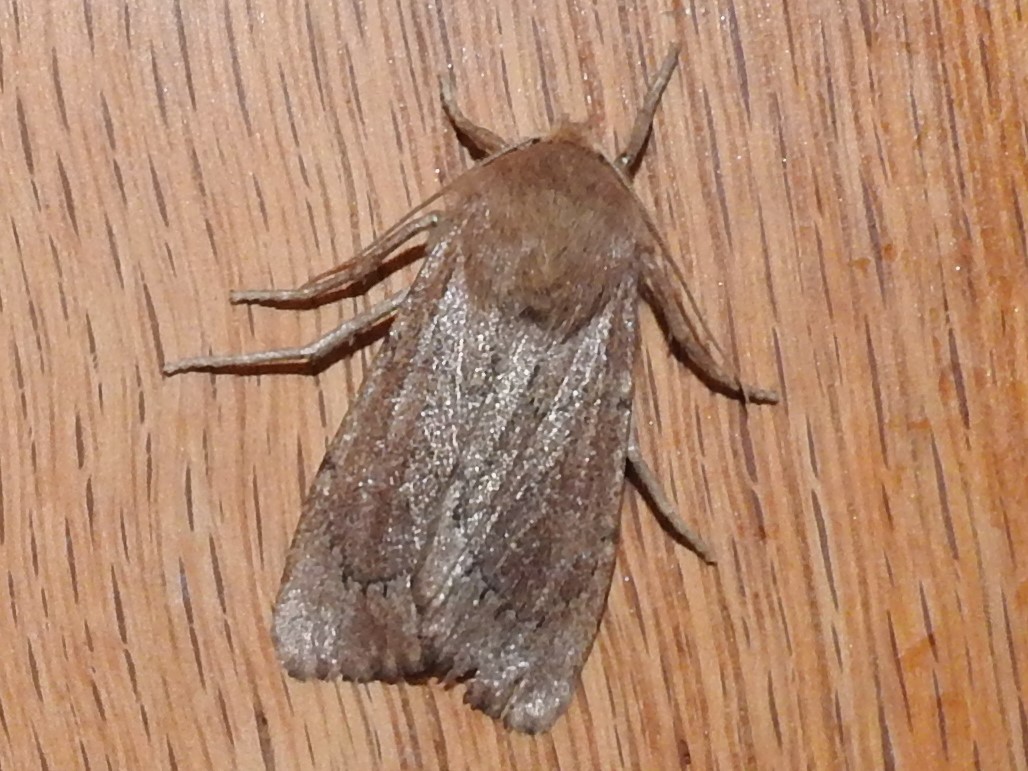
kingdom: Animalia
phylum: Arthropoda
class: Insecta
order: Lepidoptera
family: Noctuidae
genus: Ufeus
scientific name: Ufeus satyricus
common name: Brown satyr moth
